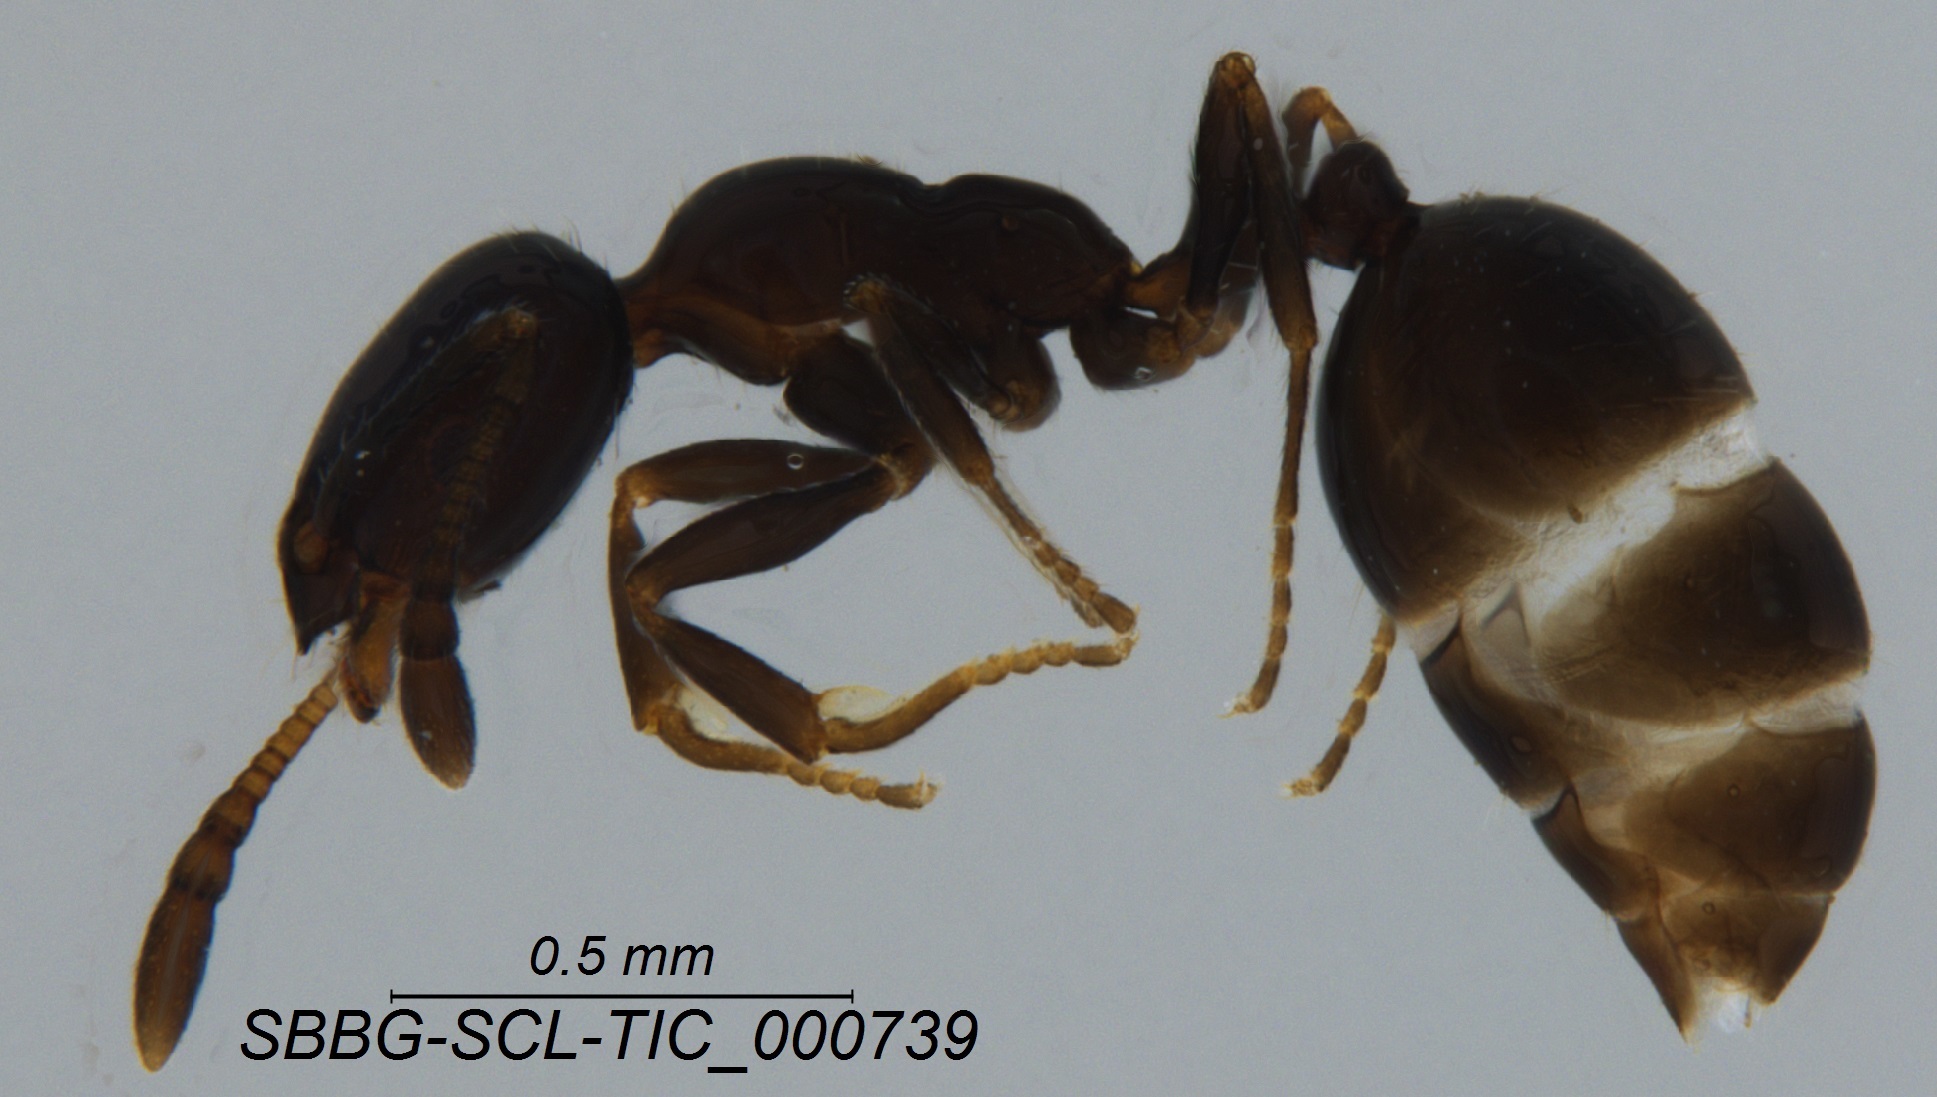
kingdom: Animalia
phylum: Arthropoda
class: Insecta
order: Hymenoptera
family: Formicidae
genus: Monomorium
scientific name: Monomorium ergatogyna
